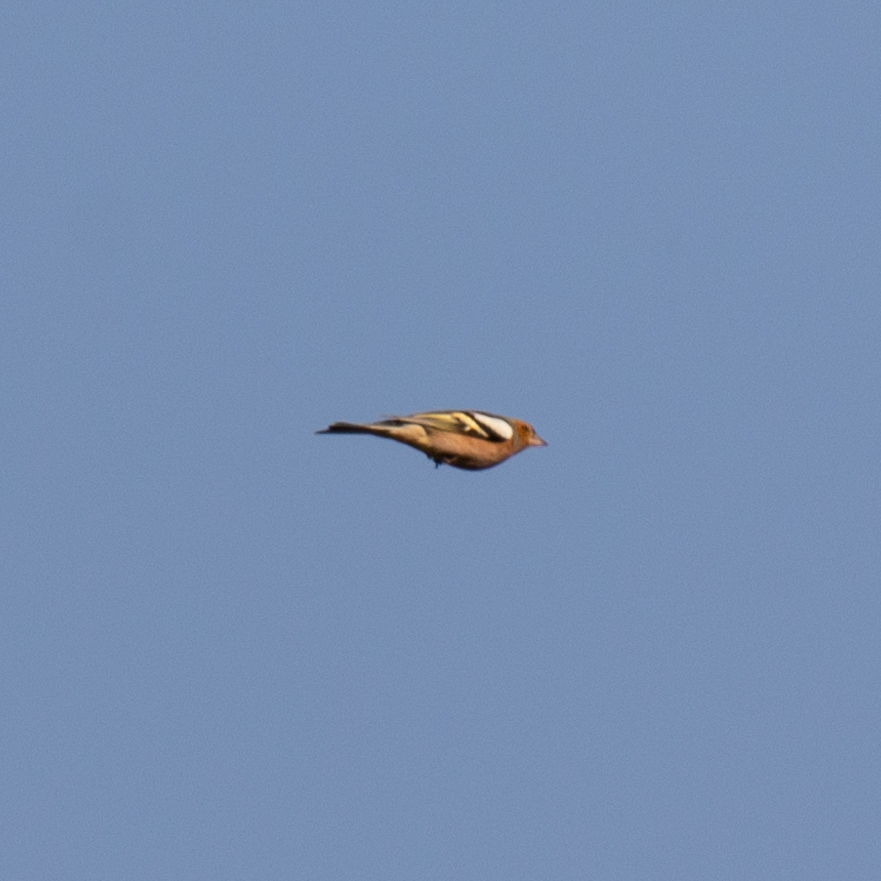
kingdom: Animalia
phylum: Chordata
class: Aves
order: Passeriformes
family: Fringillidae
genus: Fringilla
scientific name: Fringilla coelebs
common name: Common chaffinch
